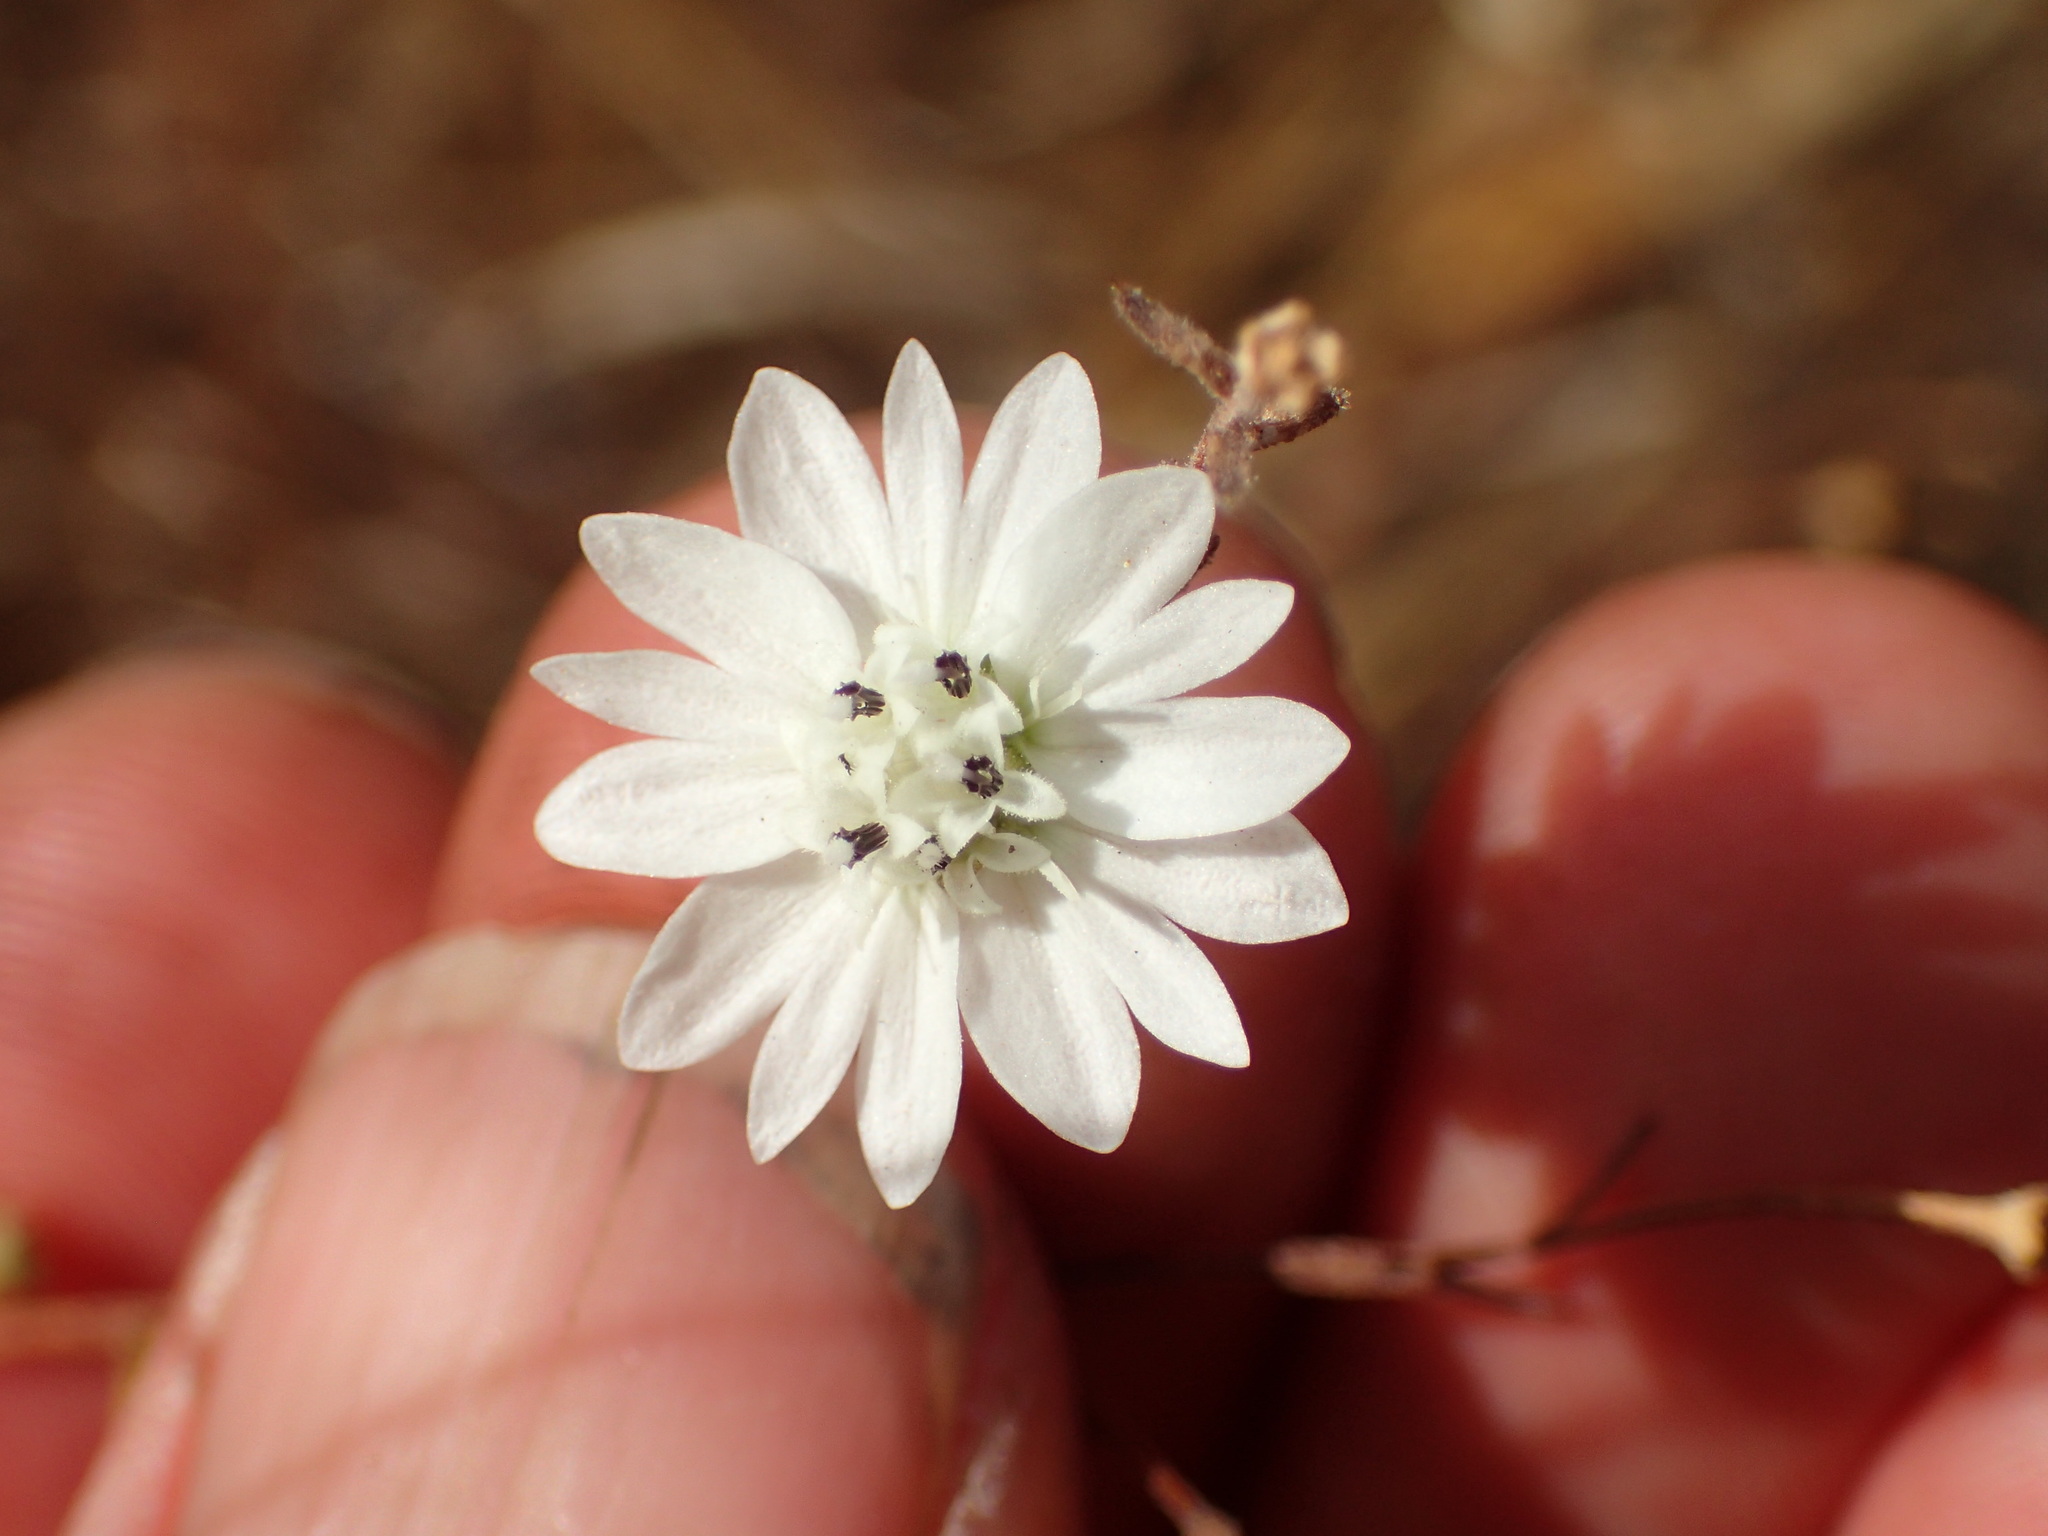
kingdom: Plantae
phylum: Tracheophyta
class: Magnoliopsida
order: Asterales
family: Asteraceae
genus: Hemizonia
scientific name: Hemizonia congesta
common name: Hayfield tarweed
